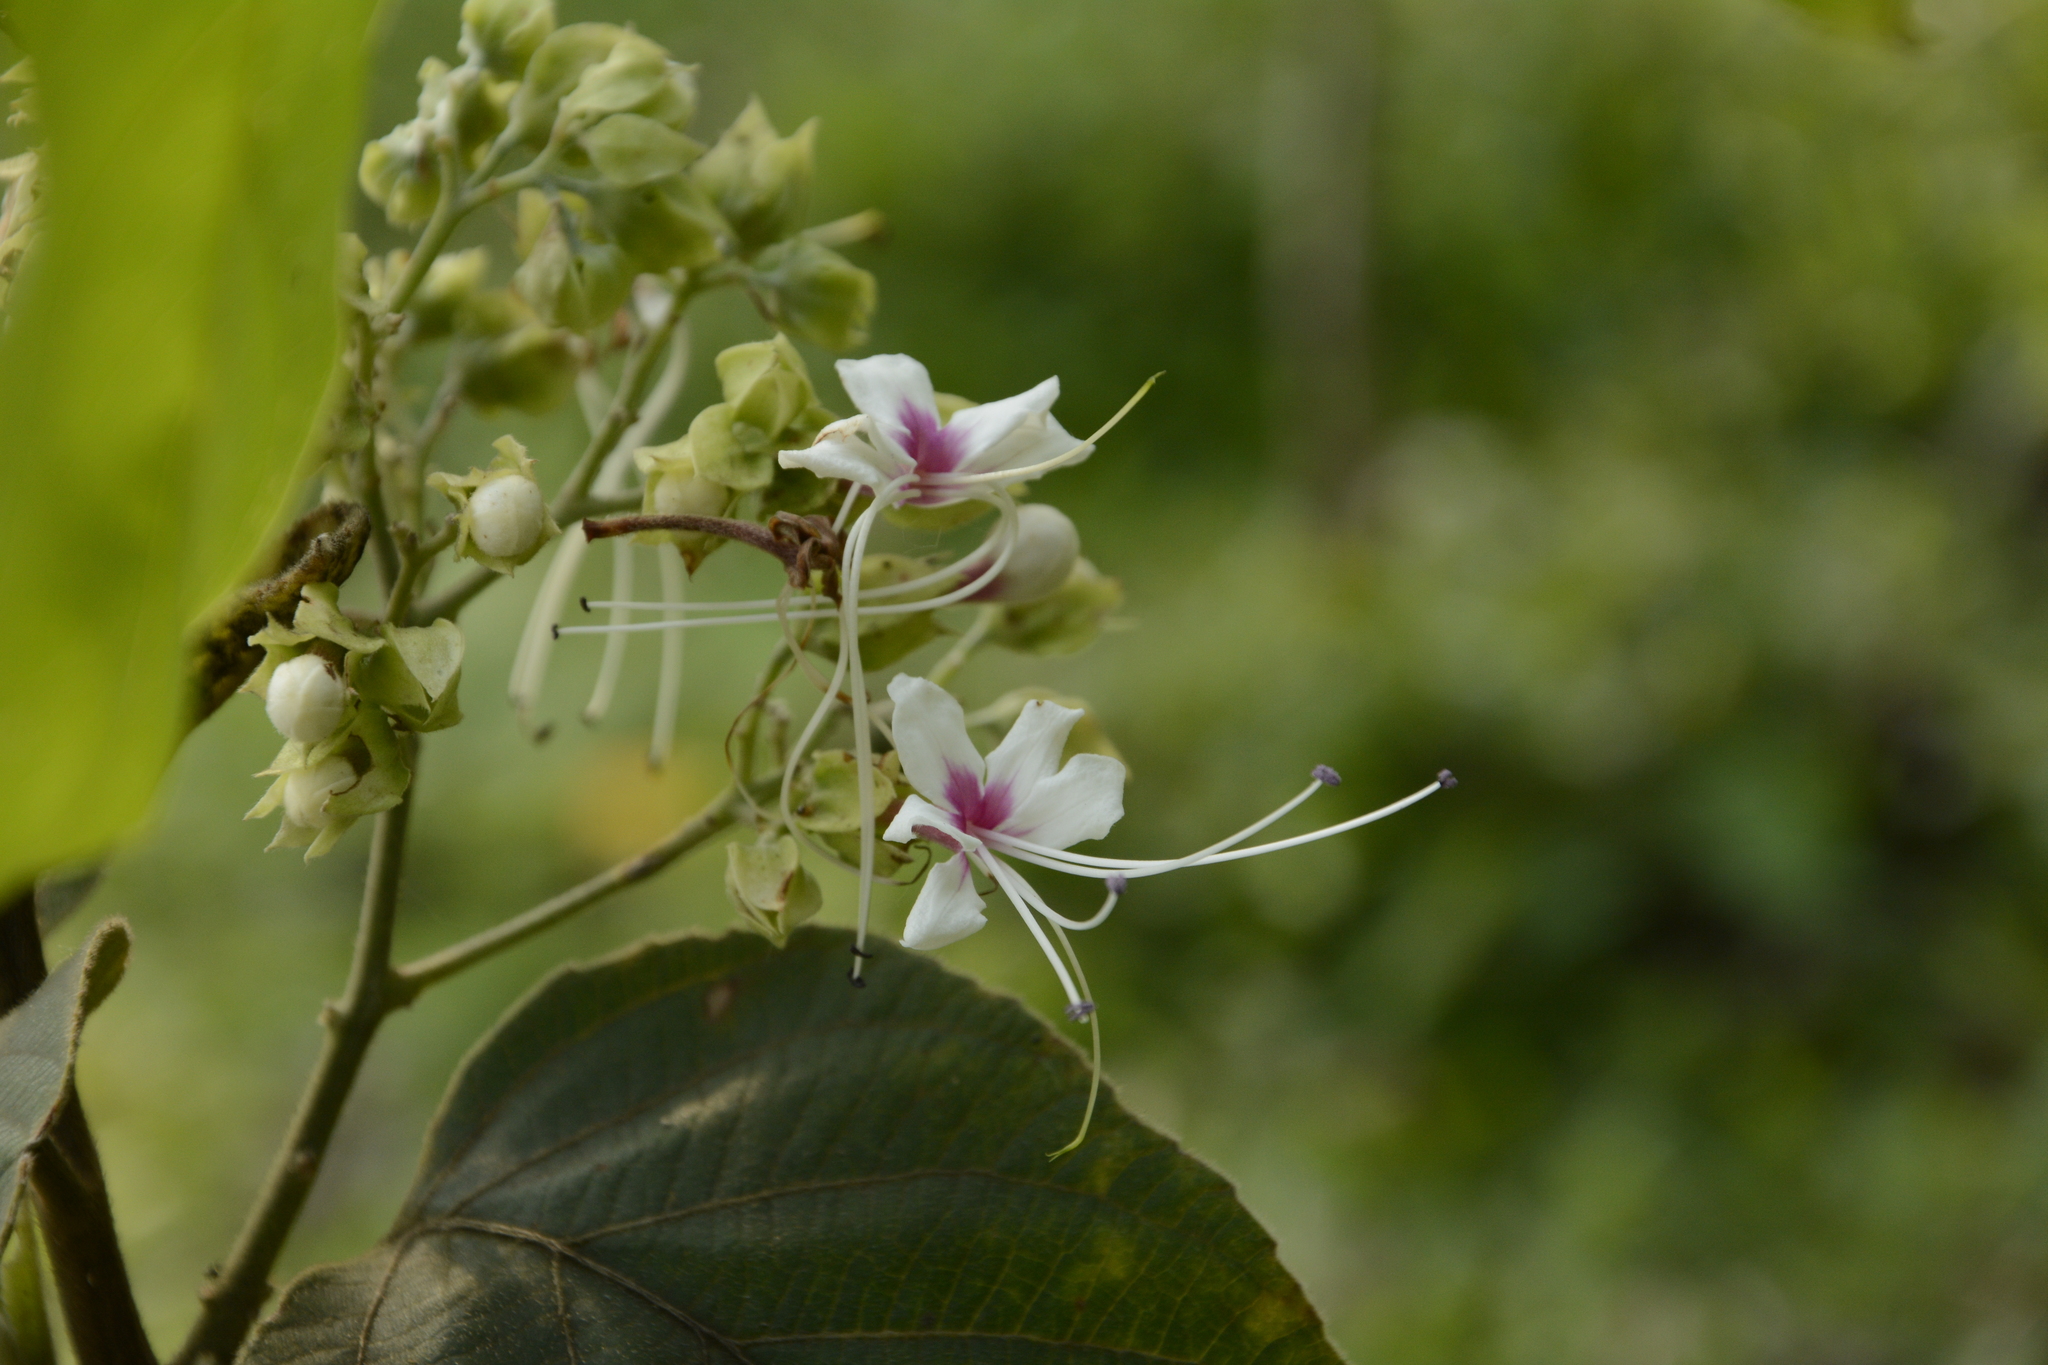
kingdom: Plantae
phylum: Tracheophyta
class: Magnoliopsida
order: Lamiales
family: Lamiaceae
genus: Clerodendrum
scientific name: Clerodendrum infortunatum
